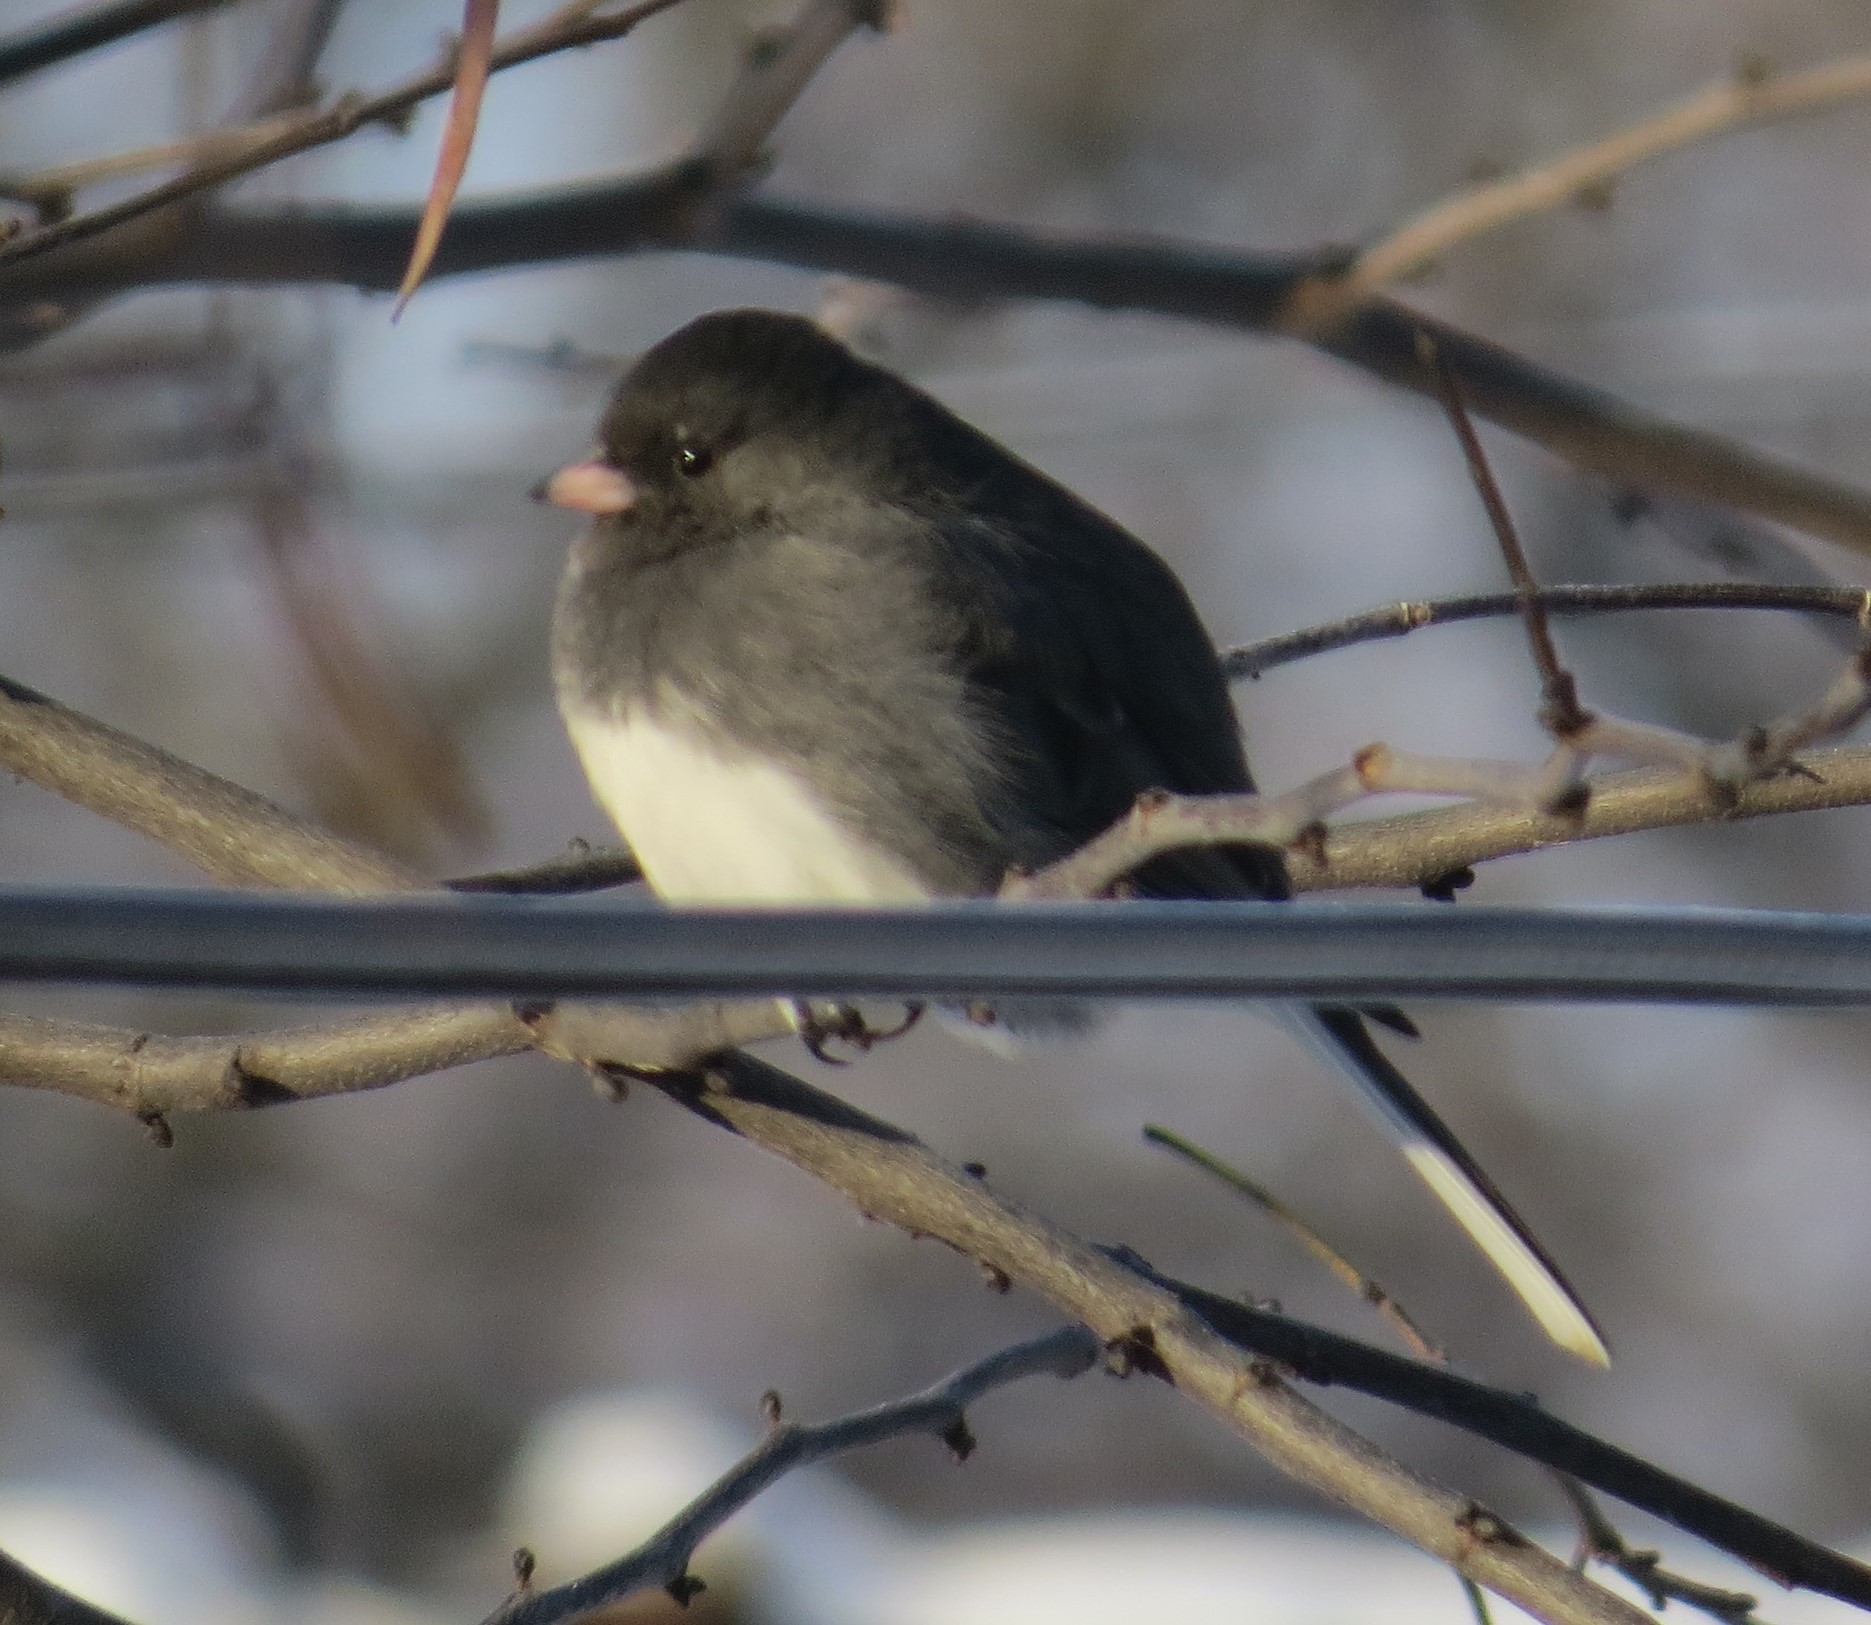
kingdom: Animalia
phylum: Chordata
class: Aves
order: Passeriformes
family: Passerellidae
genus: Junco
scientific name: Junco hyemalis
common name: Dark-eyed junco
